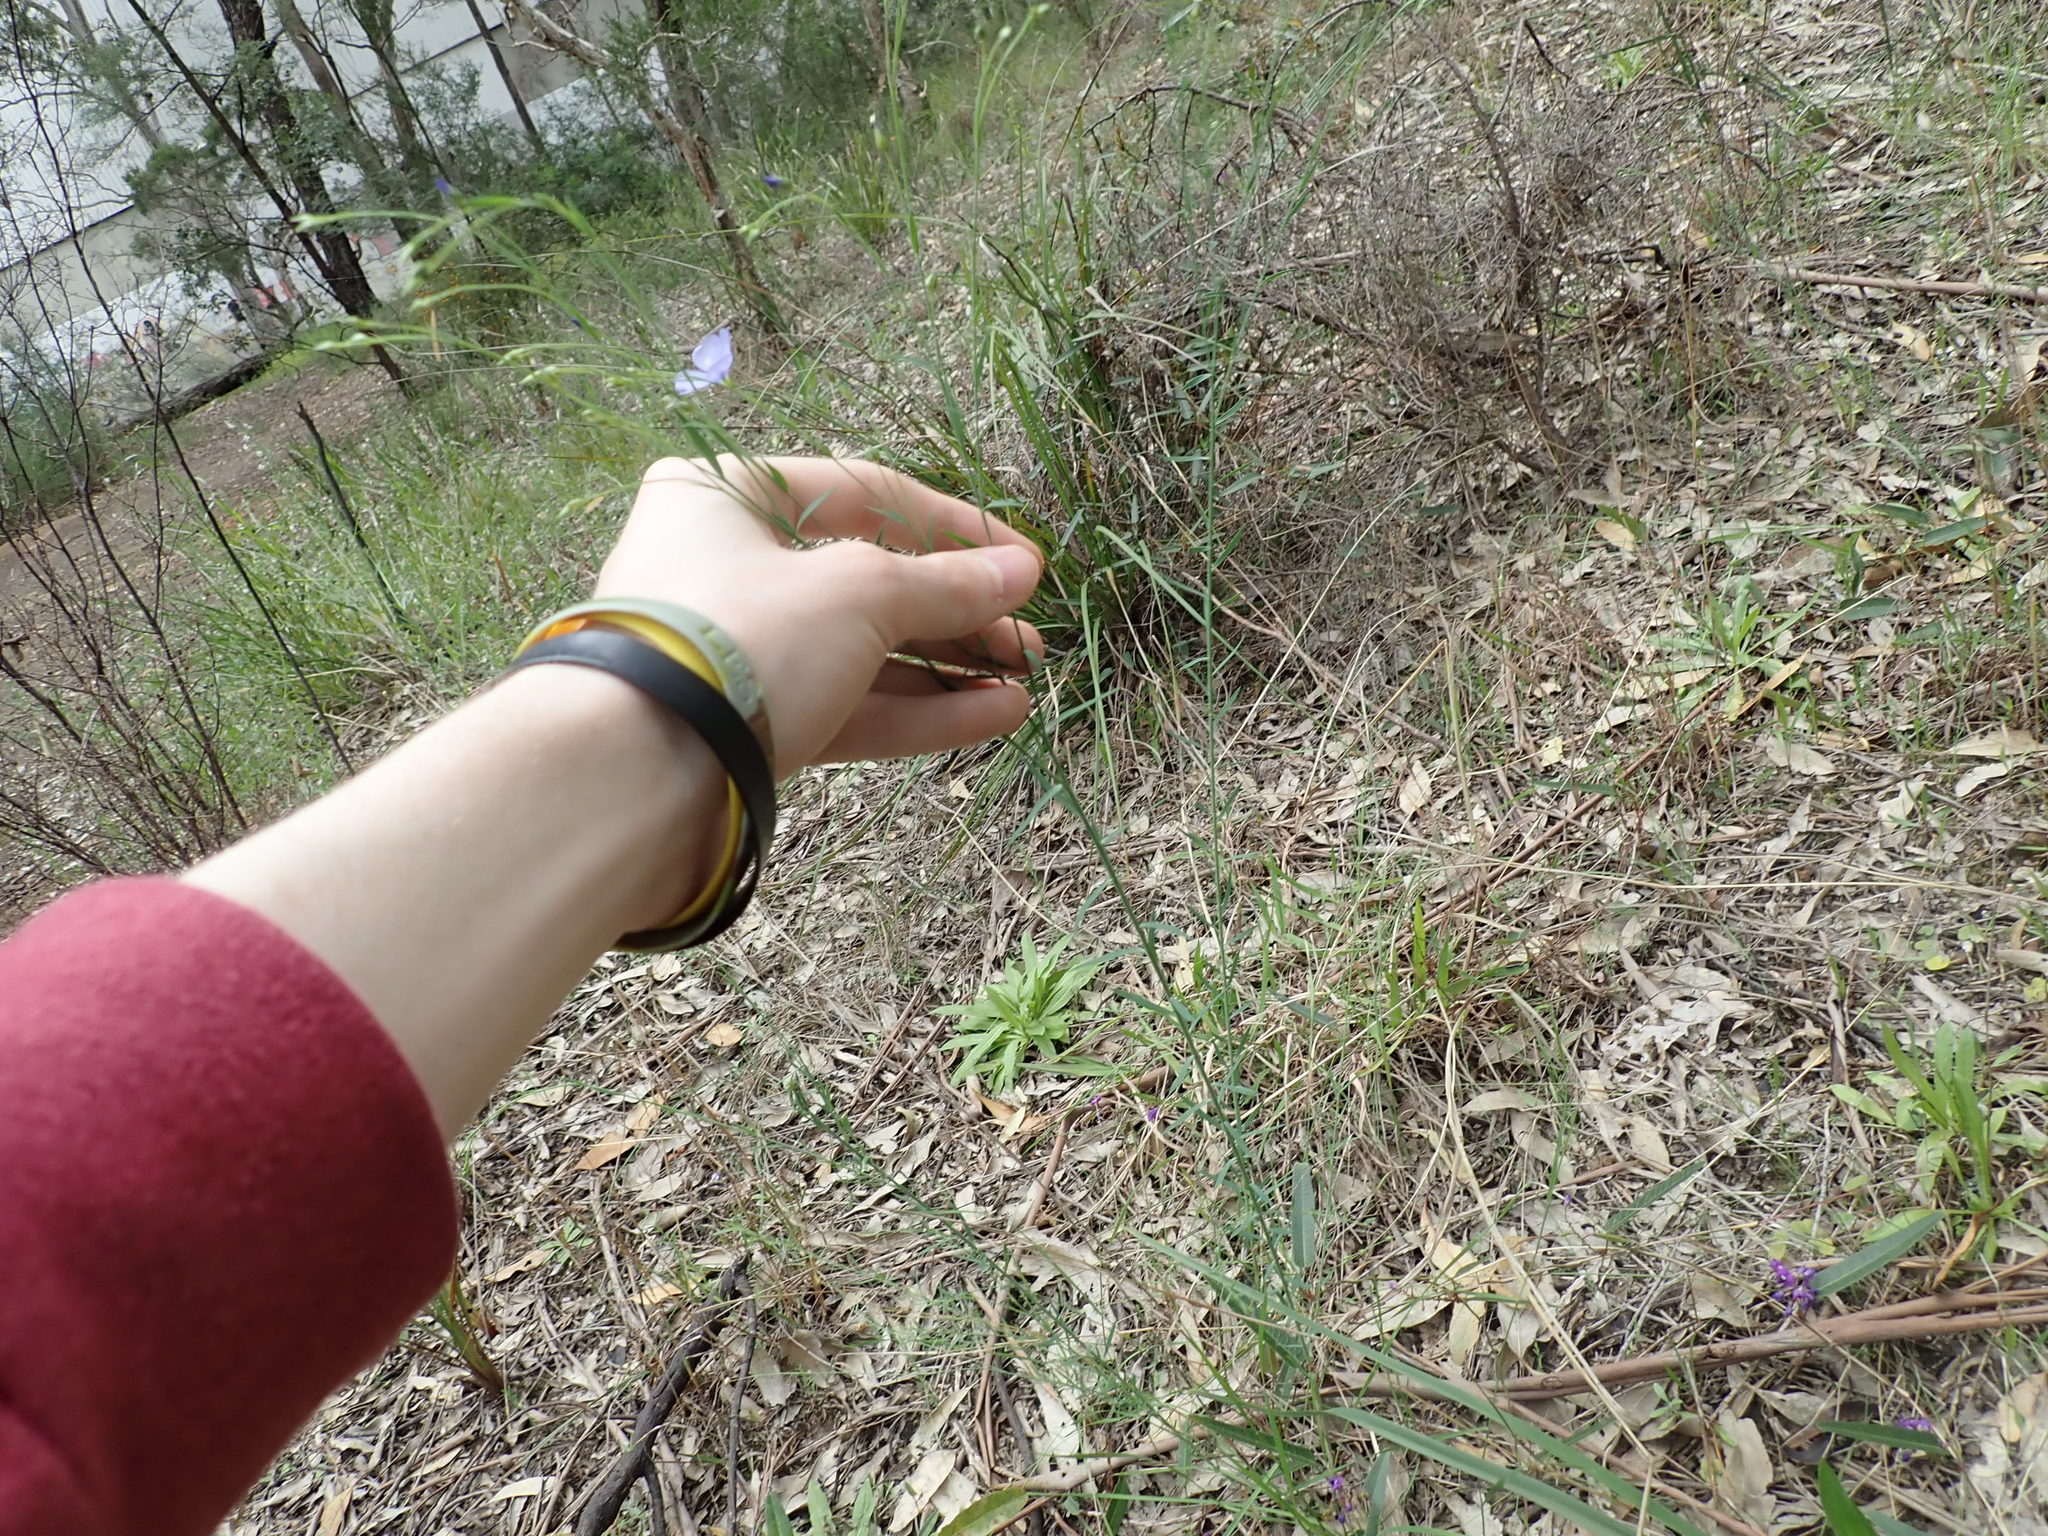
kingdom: Plantae
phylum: Tracheophyta
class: Magnoliopsida
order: Malpighiales
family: Linaceae
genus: Linum
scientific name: Linum marginale
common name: Wild flax
